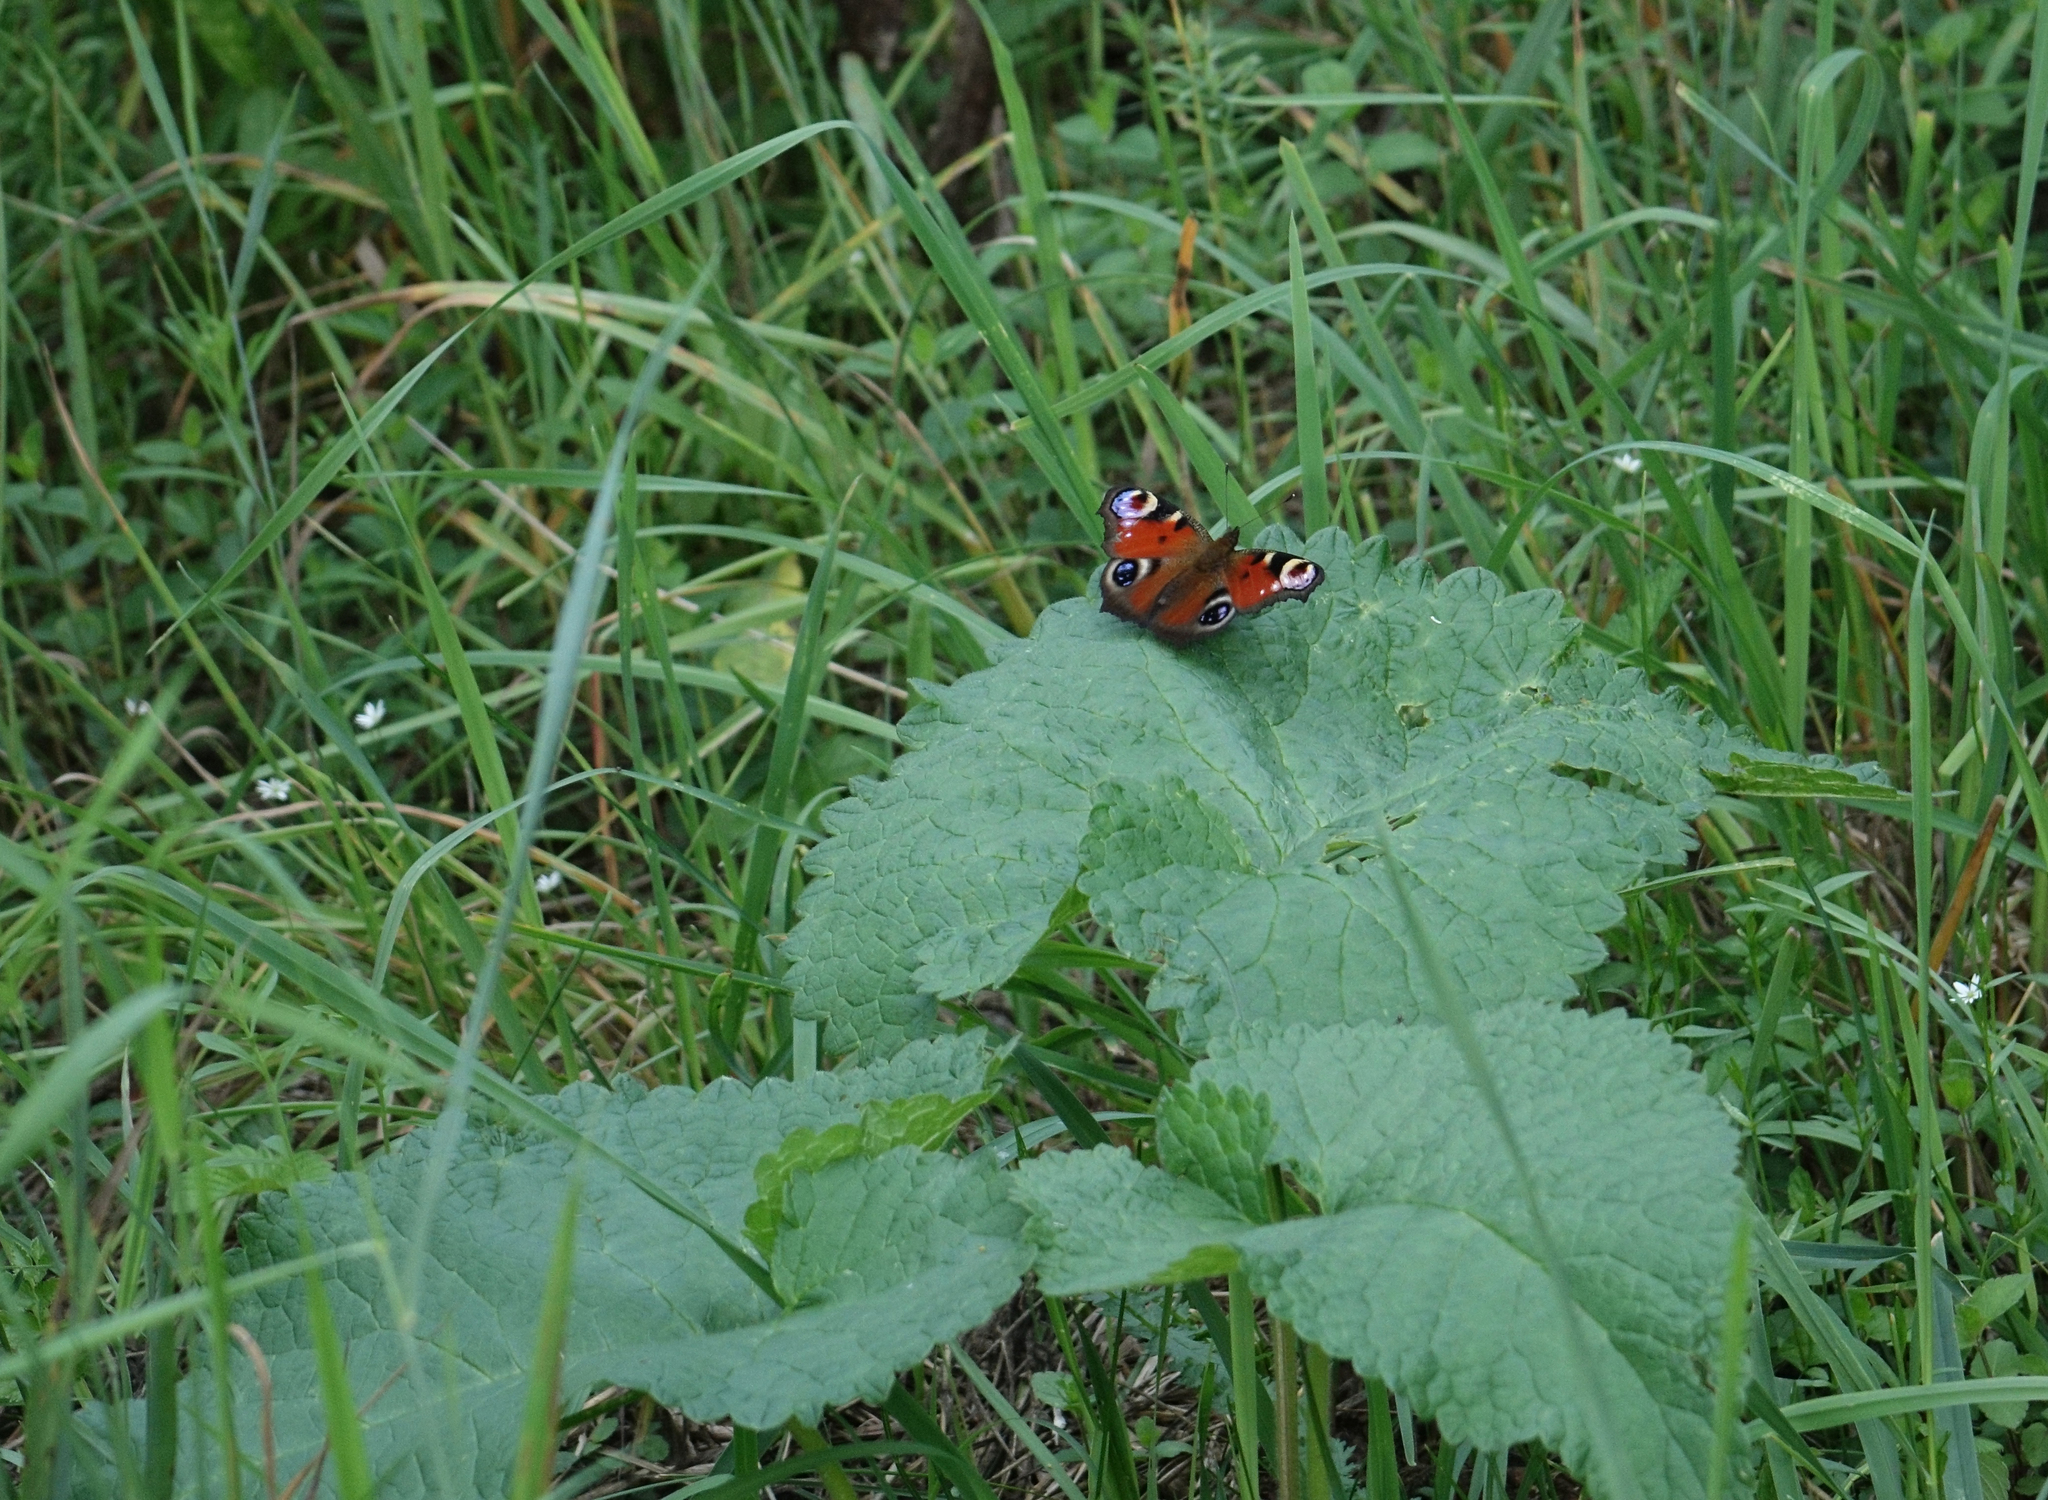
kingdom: Plantae
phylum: Tracheophyta
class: Magnoliopsida
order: Lamiales
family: Lamiaceae
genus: Phlomoides
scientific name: Phlomoides tuberosa
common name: Tuberous jerusalem sage
